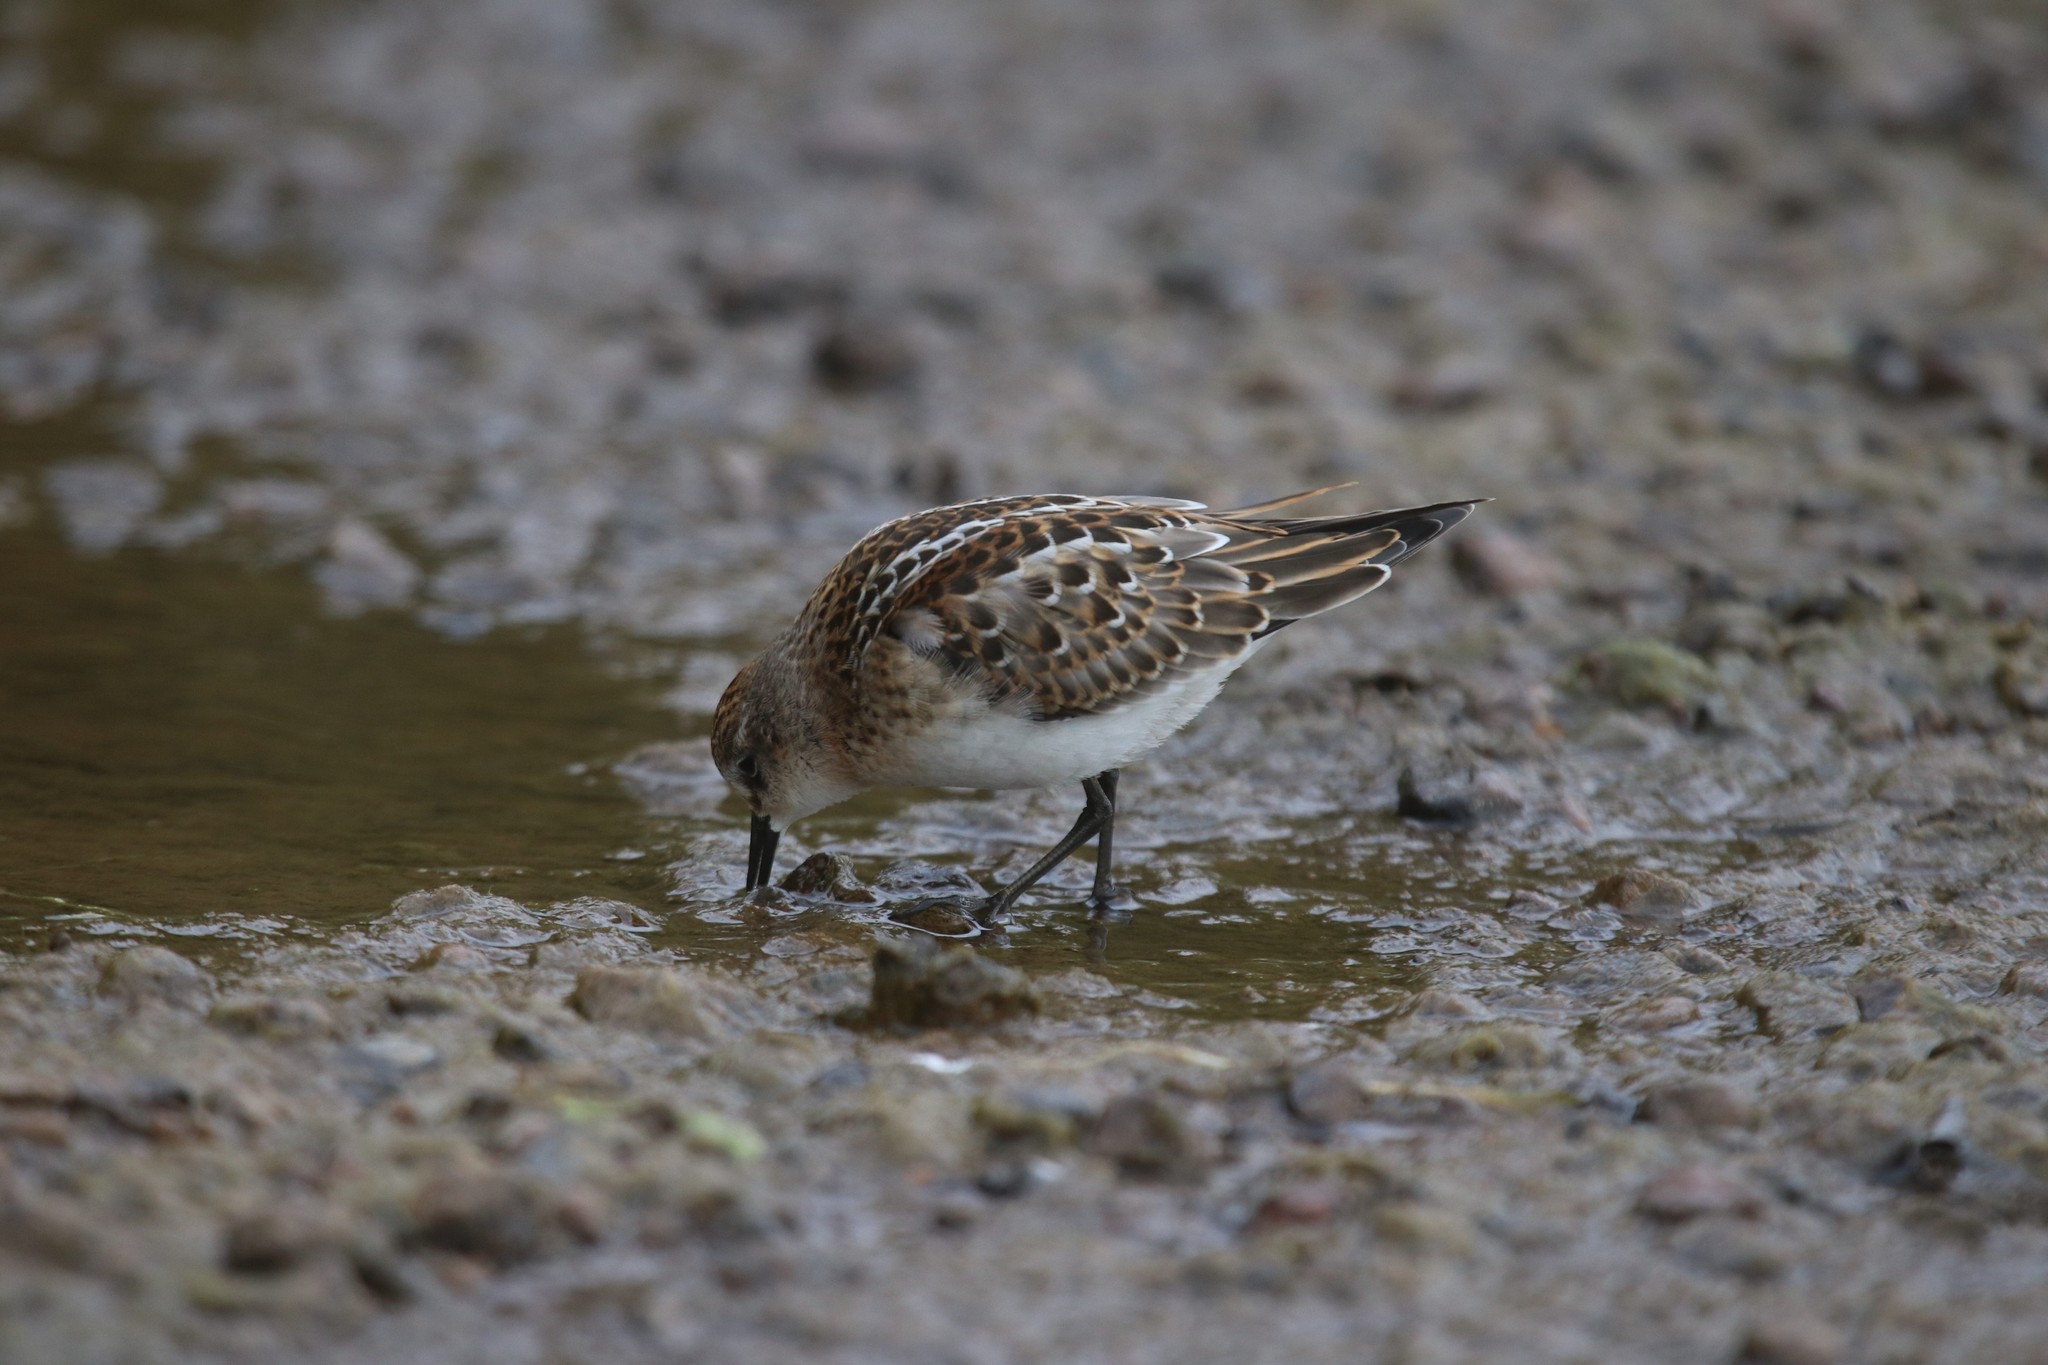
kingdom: Animalia
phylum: Chordata
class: Aves
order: Charadriiformes
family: Scolopacidae
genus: Calidris
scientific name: Calidris minuta
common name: Little stint
